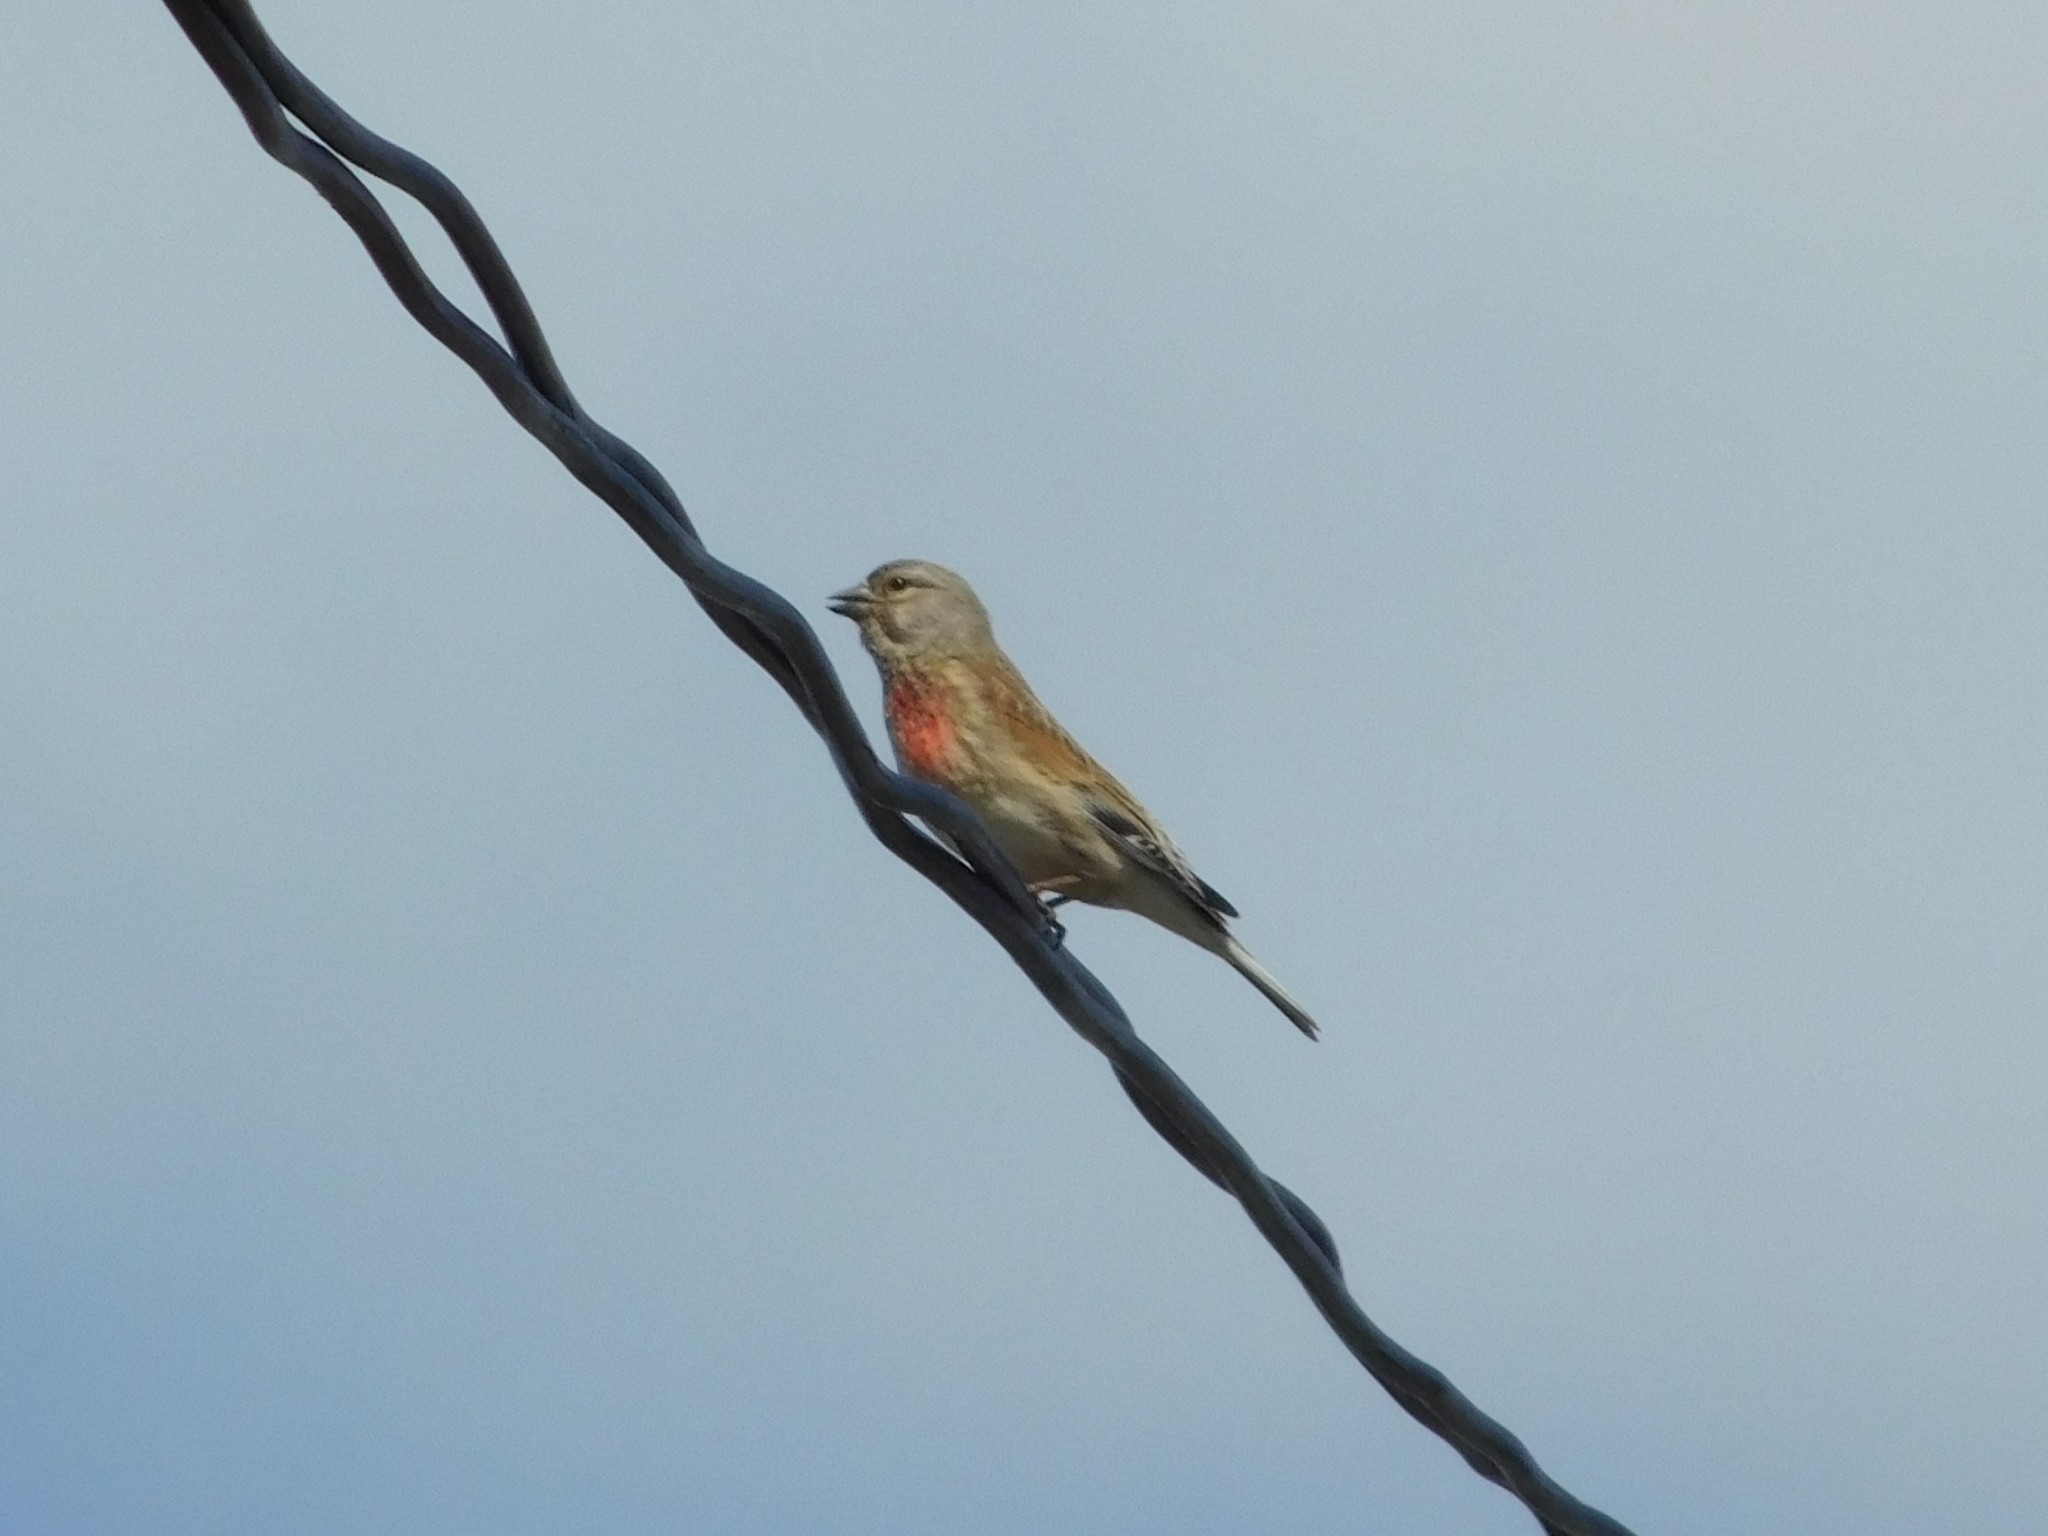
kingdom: Animalia
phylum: Chordata
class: Aves
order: Passeriformes
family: Fringillidae
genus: Linaria
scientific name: Linaria cannabina
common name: Common linnet
